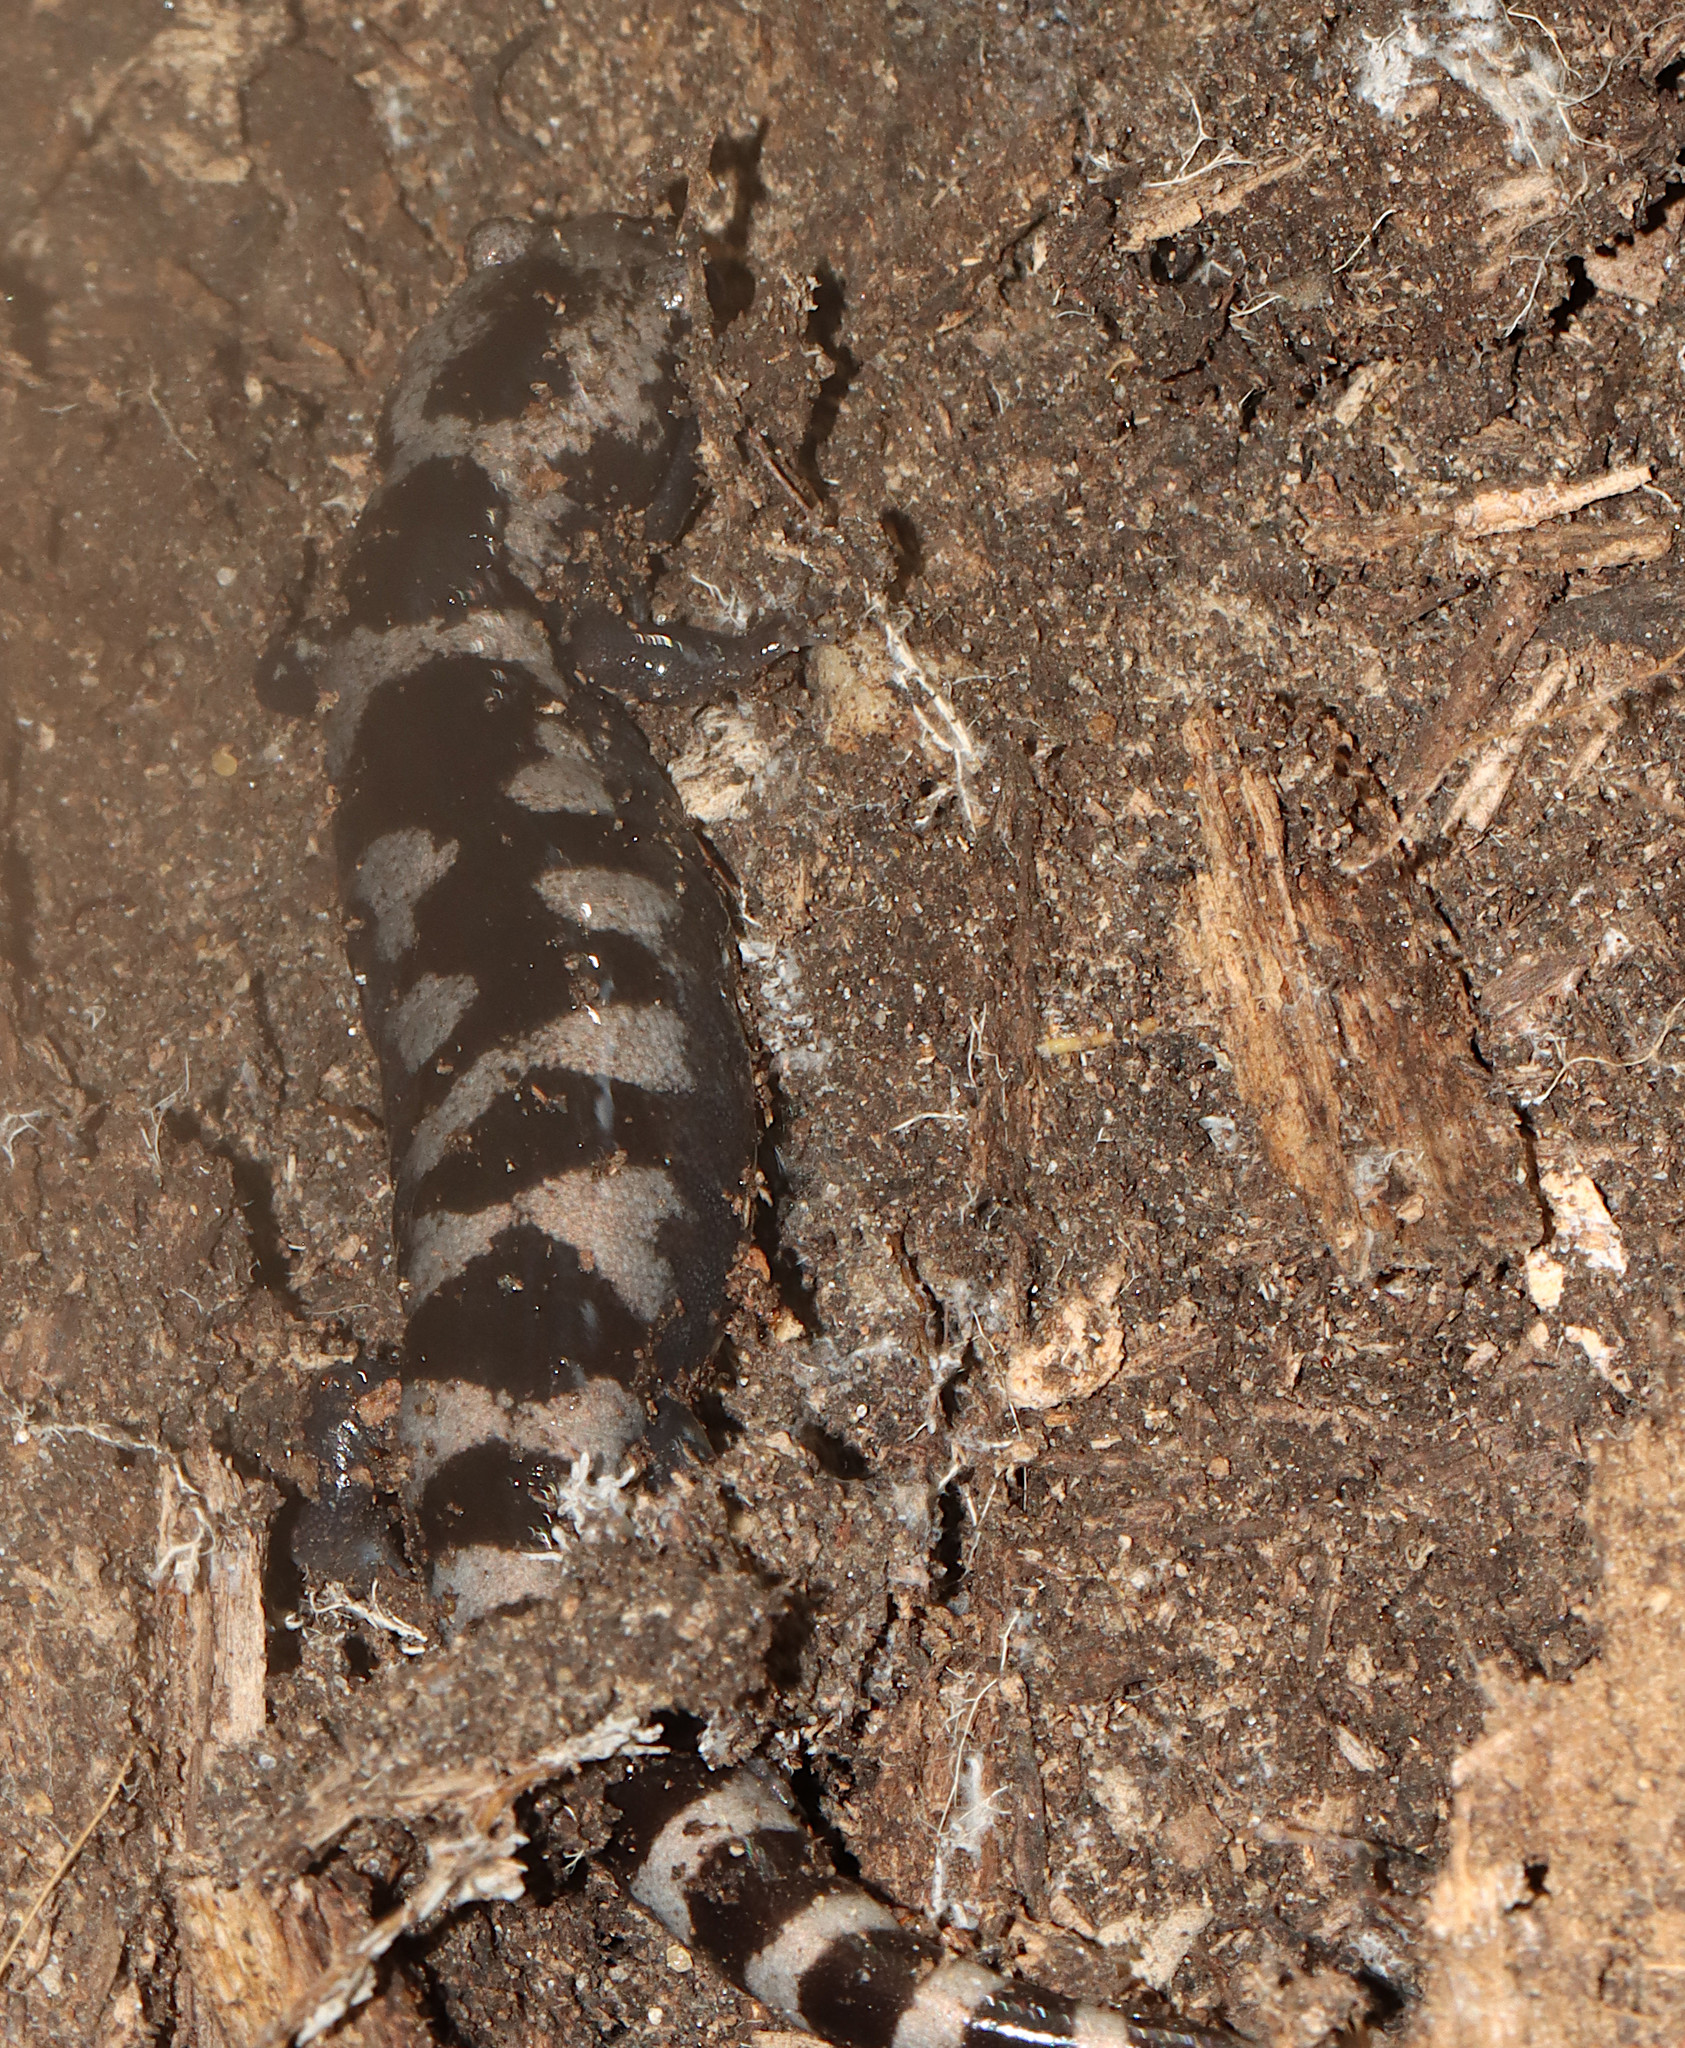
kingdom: Animalia
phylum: Chordata
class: Amphibia
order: Caudata
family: Ambystomatidae
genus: Ambystoma
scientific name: Ambystoma opacum
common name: Marbled salamander
